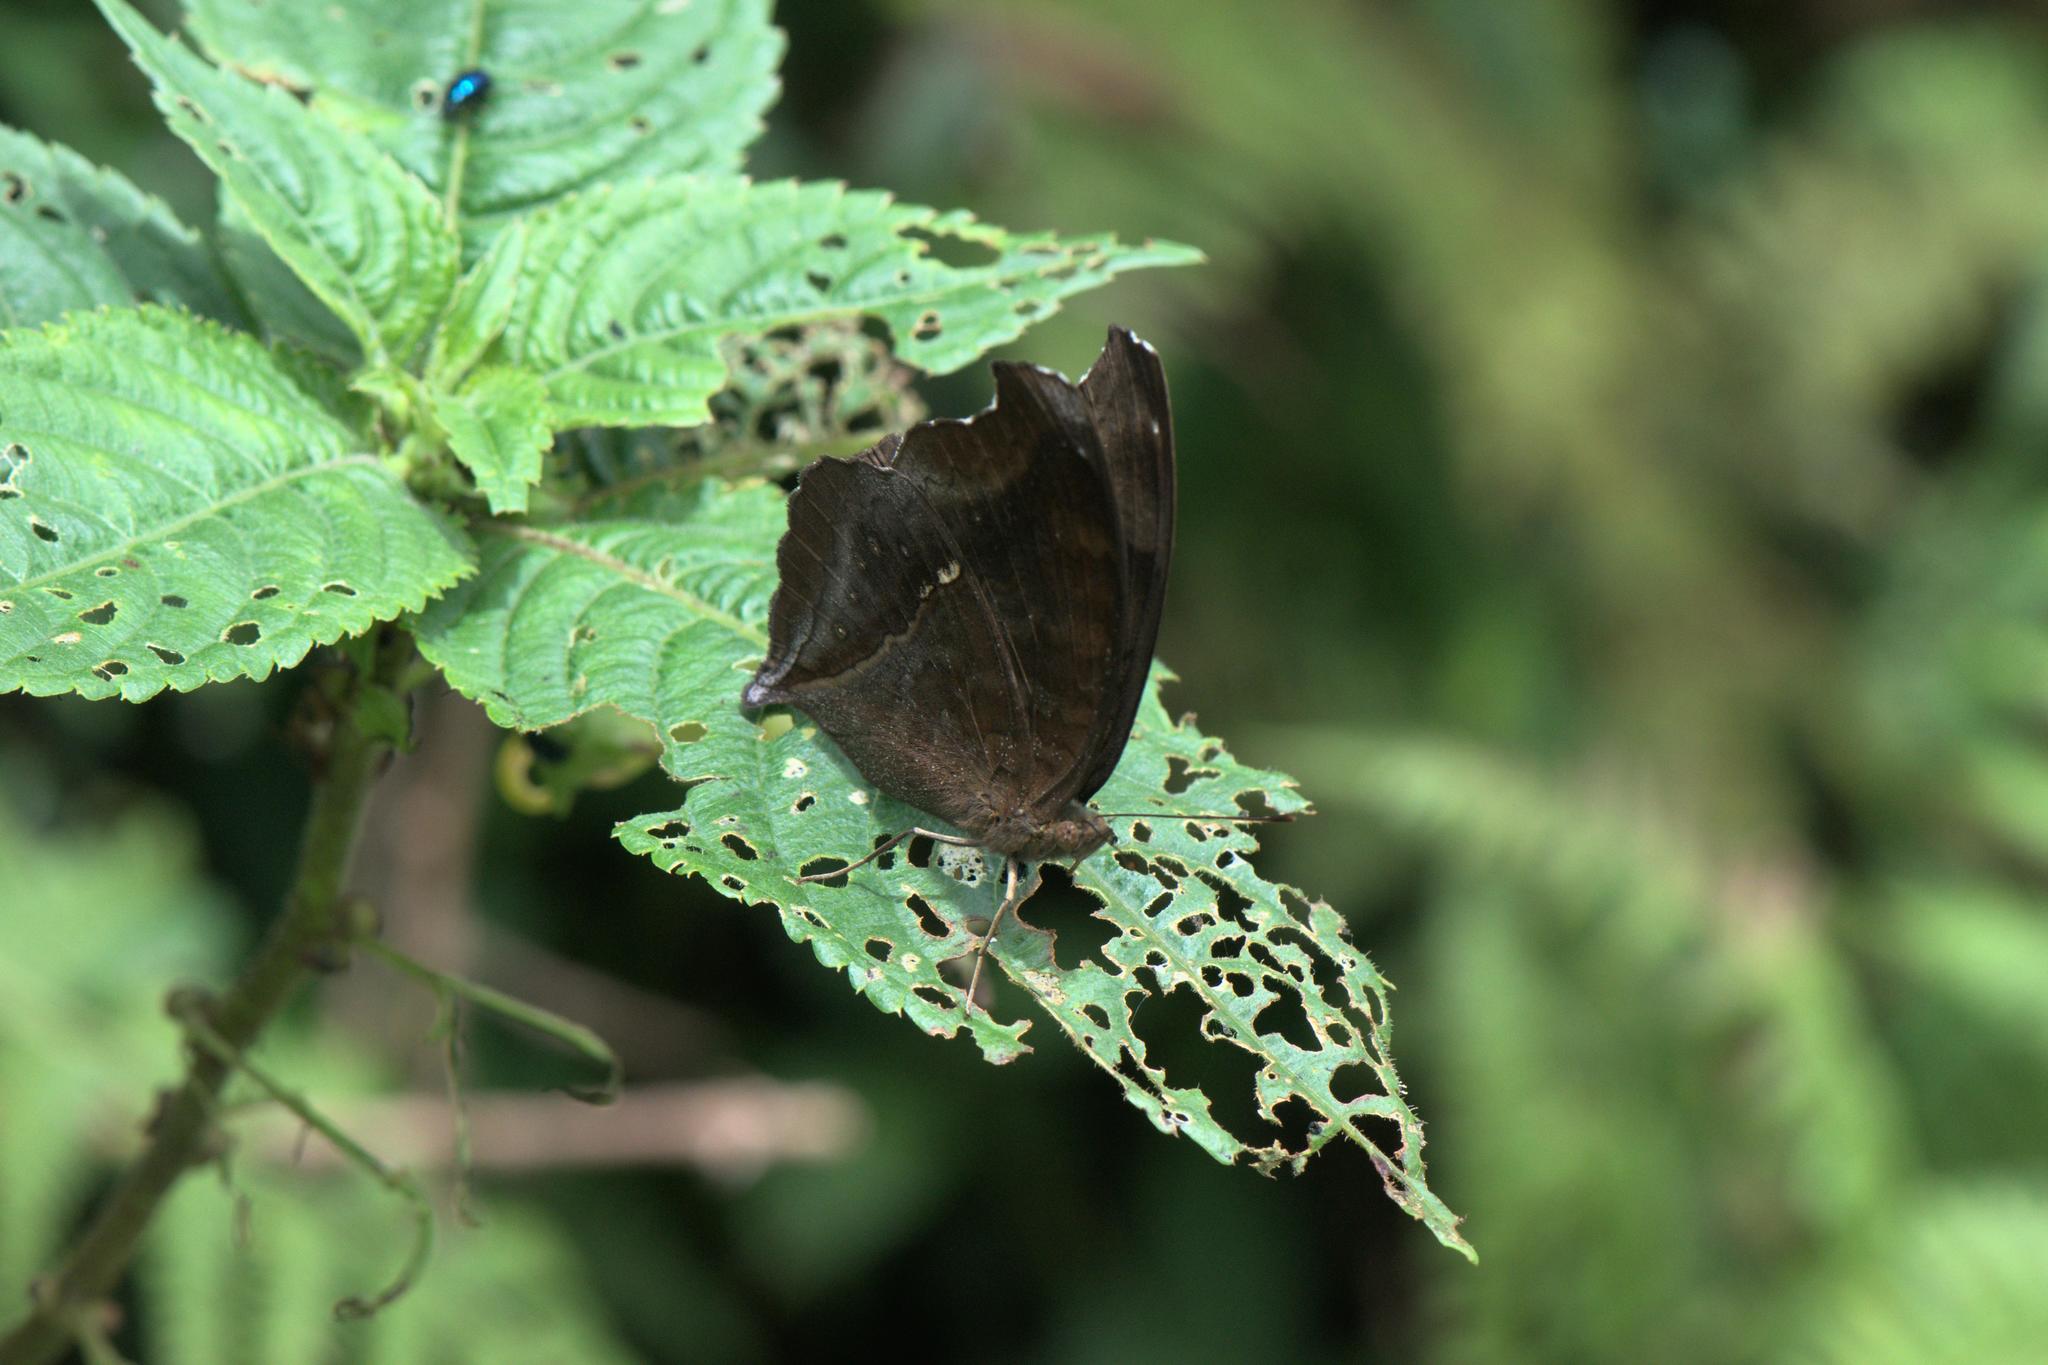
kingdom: Animalia
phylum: Arthropoda
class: Insecta
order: Lepidoptera
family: Nymphalidae
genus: Junonia
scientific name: Junonia iphita
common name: Chocolate pansy
